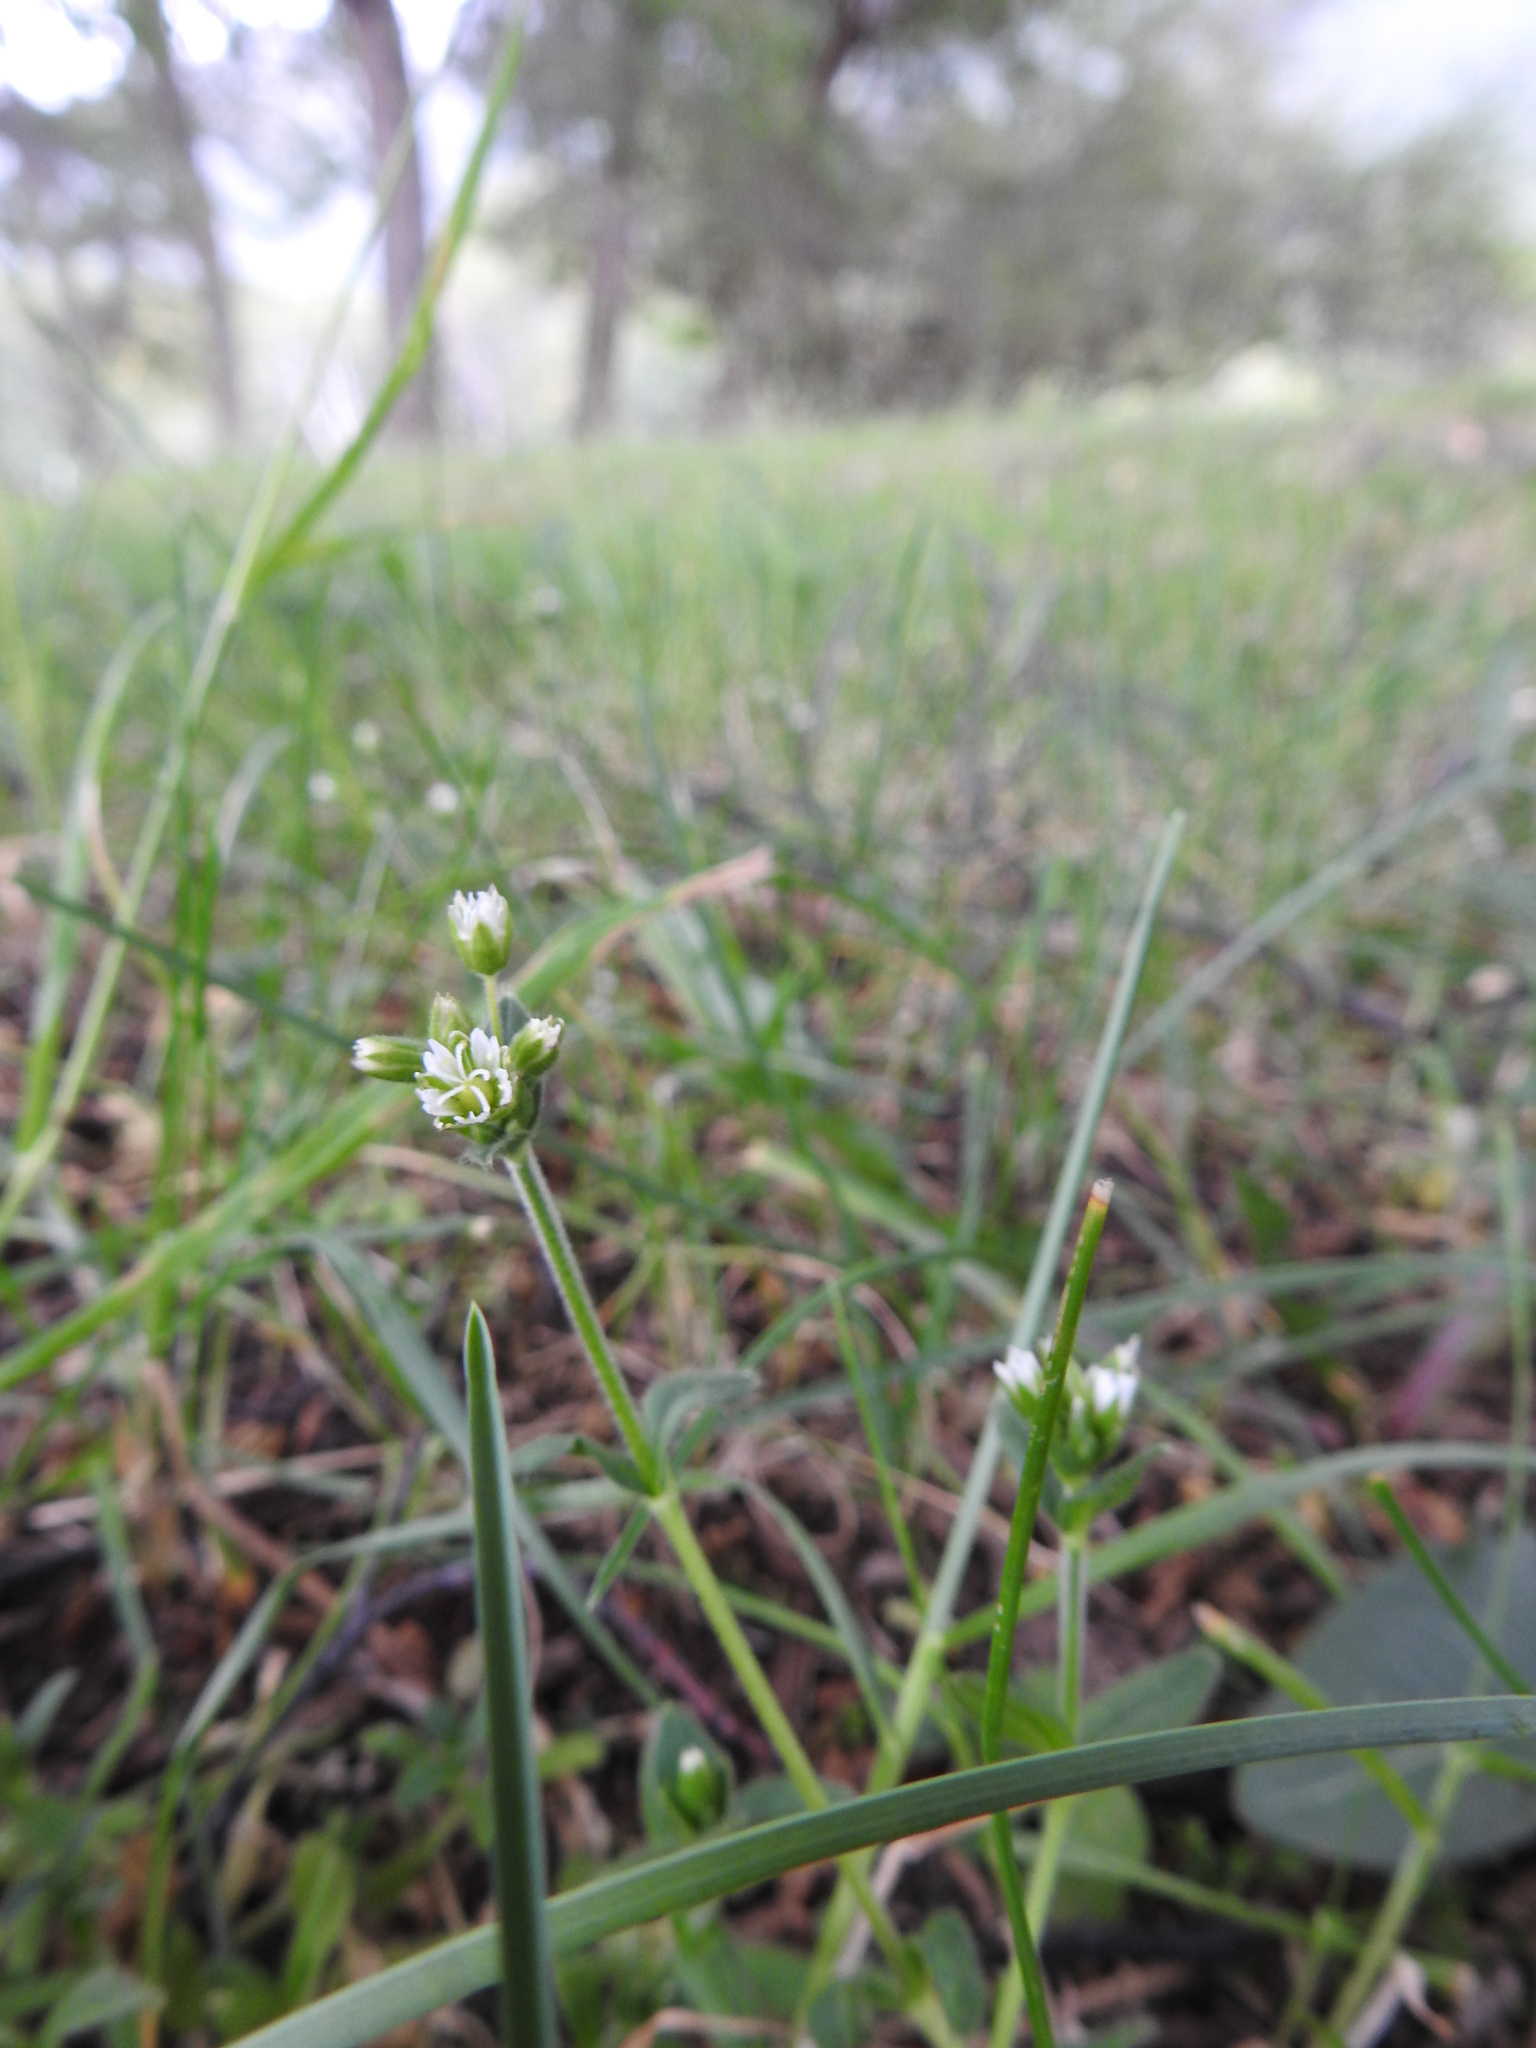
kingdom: Plantae
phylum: Tracheophyta
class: Magnoliopsida
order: Caryophyllales
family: Caryophyllaceae
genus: Cerastium
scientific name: Cerastium fontanum
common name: Common mouse-ear
